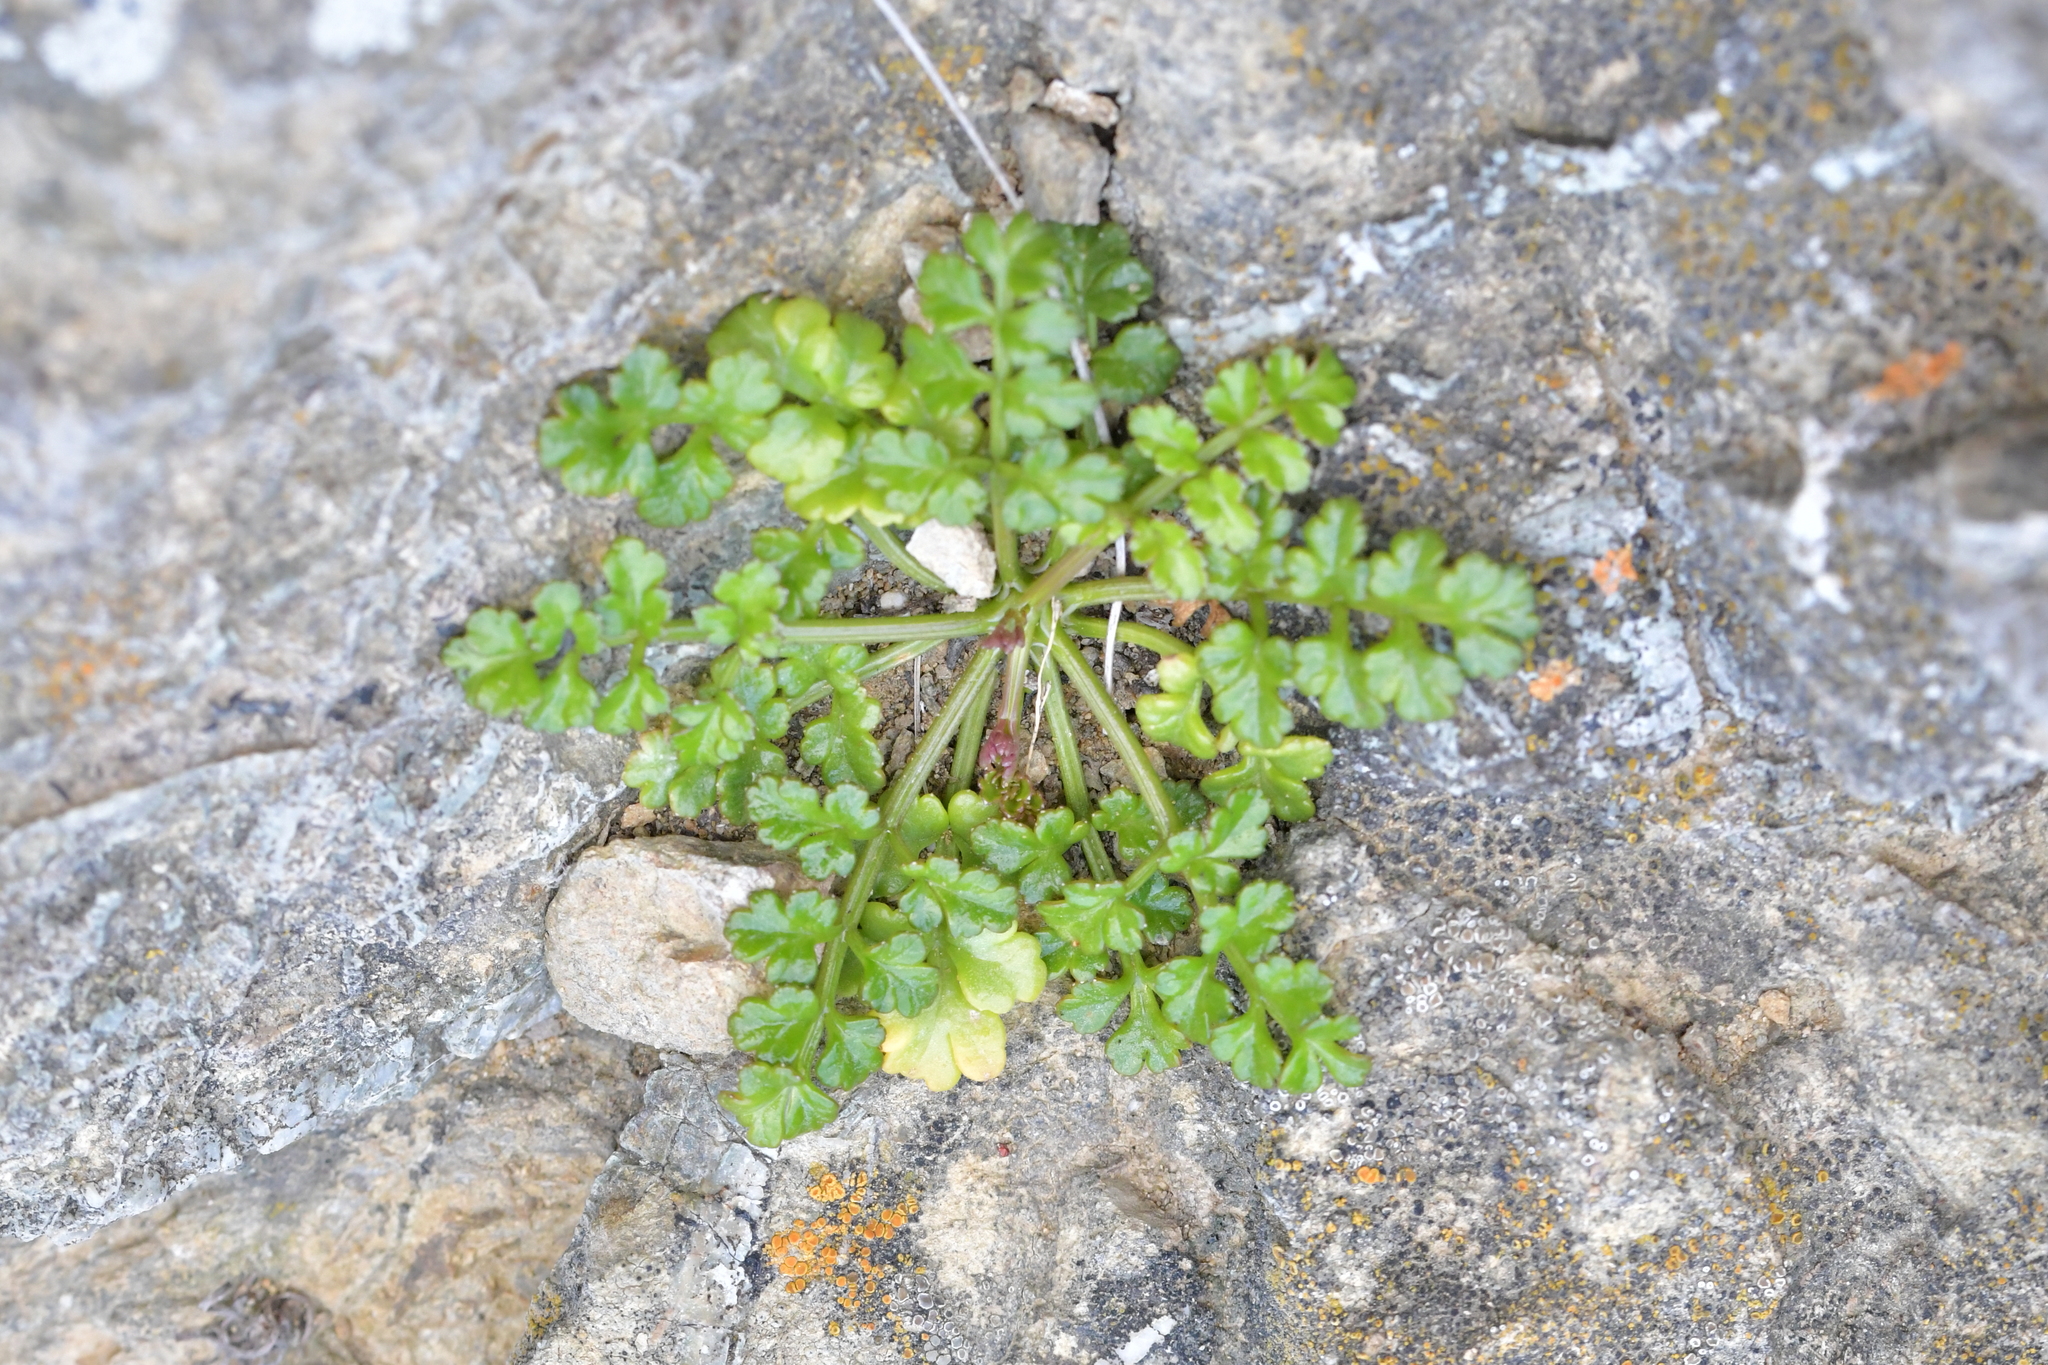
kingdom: Plantae
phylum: Tracheophyta
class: Magnoliopsida
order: Apiales
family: Apiaceae
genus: Apium
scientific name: Apium prostratum
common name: Prostrate marshwort
